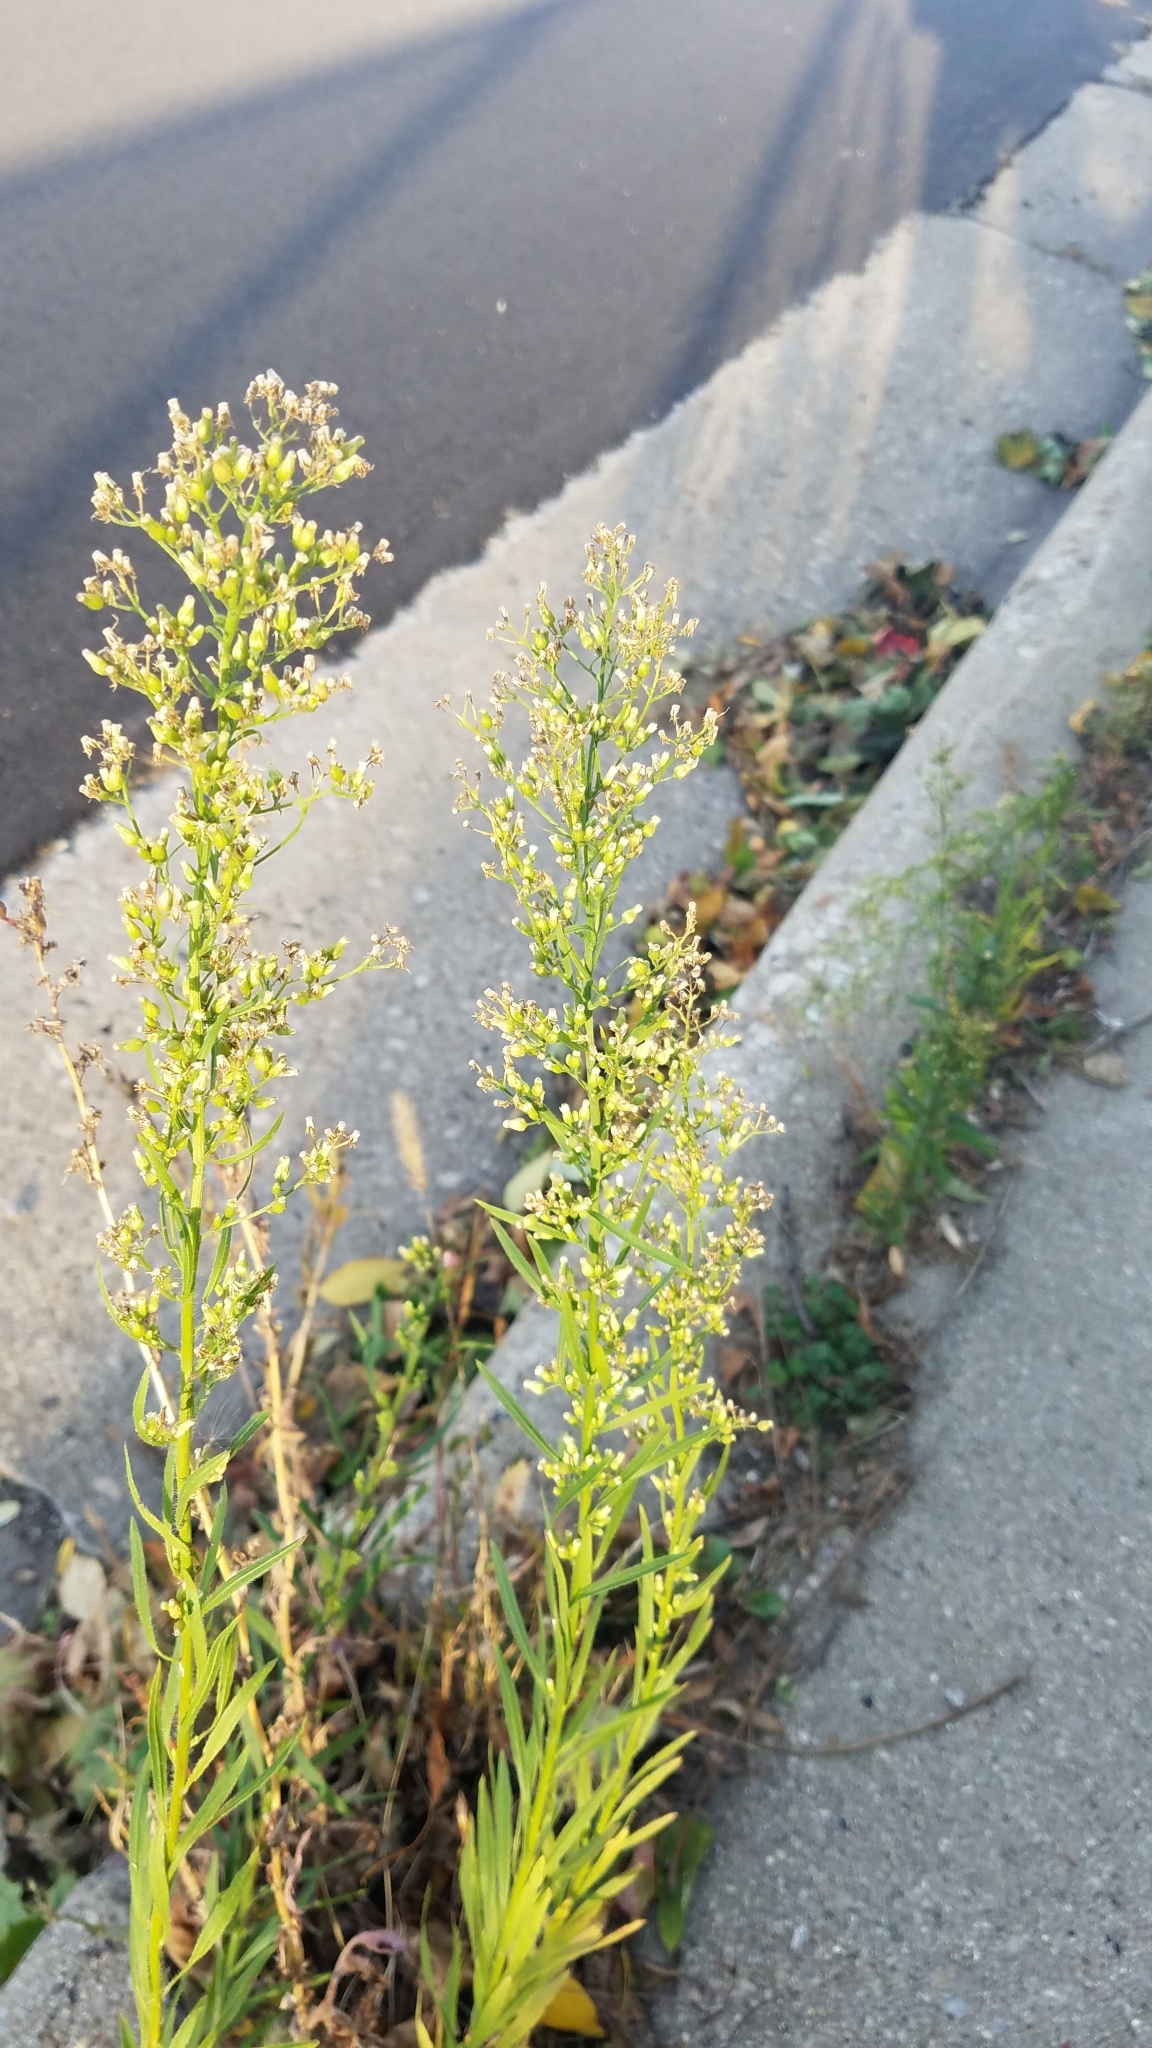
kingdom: Plantae
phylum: Tracheophyta
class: Magnoliopsida
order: Asterales
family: Asteraceae
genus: Erigeron
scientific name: Erigeron canadensis
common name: Canadian fleabane
